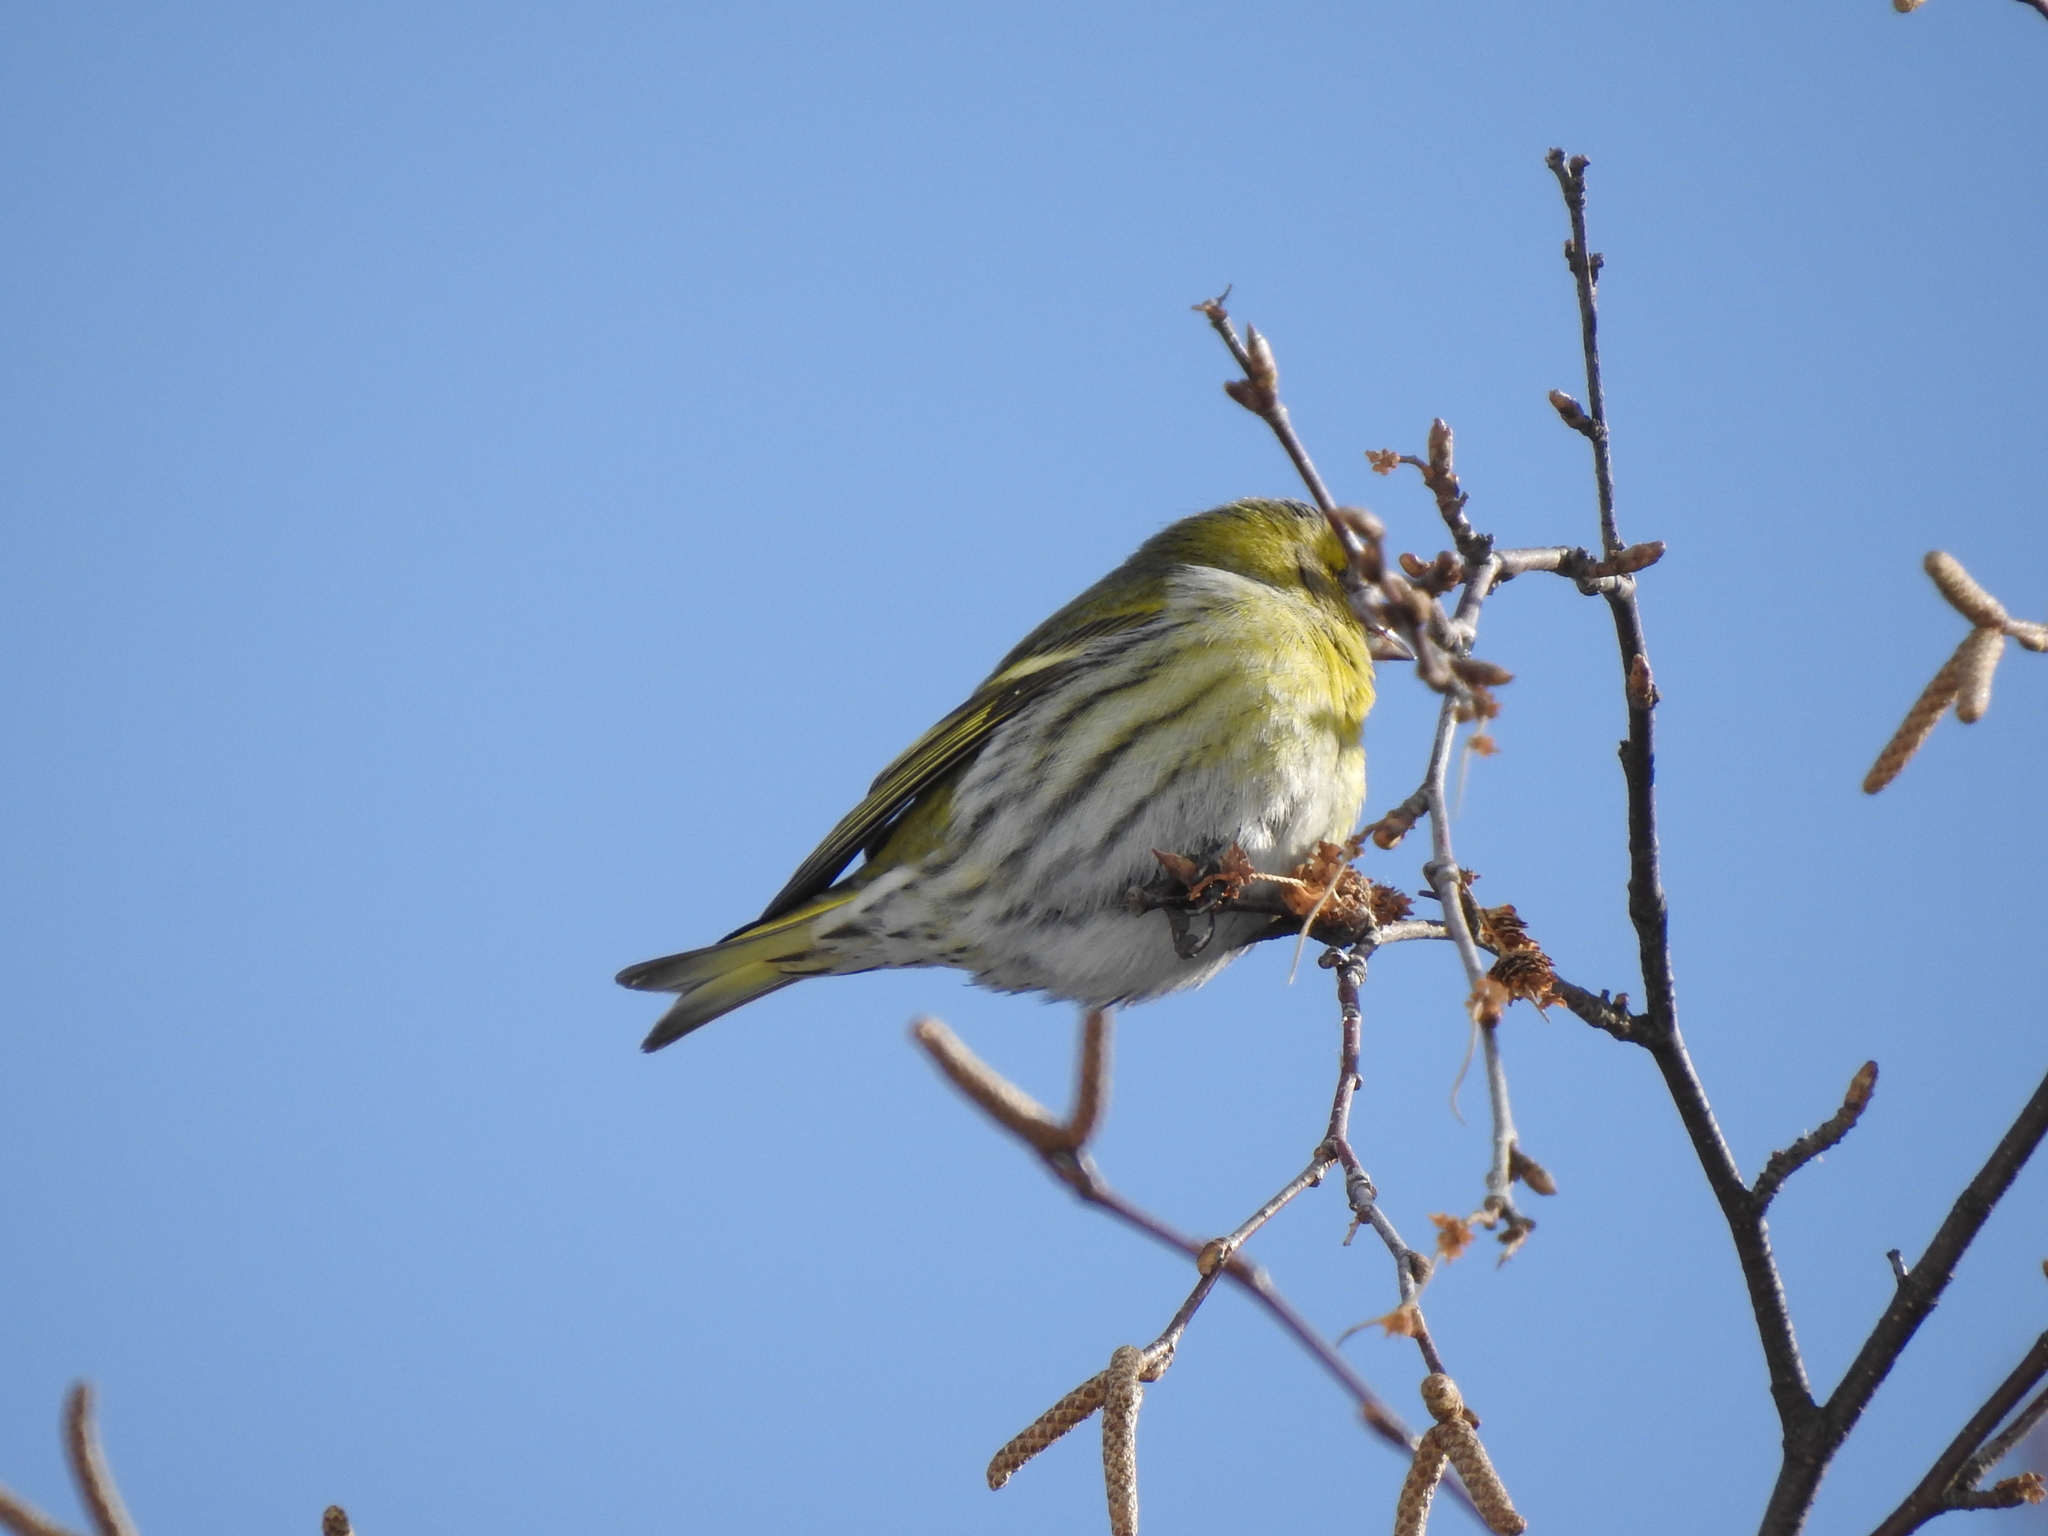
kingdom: Animalia
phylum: Chordata
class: Aves
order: Passeriformes
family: Fringillidae
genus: Spinus
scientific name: Spinus spinus
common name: Eurasian siskin
